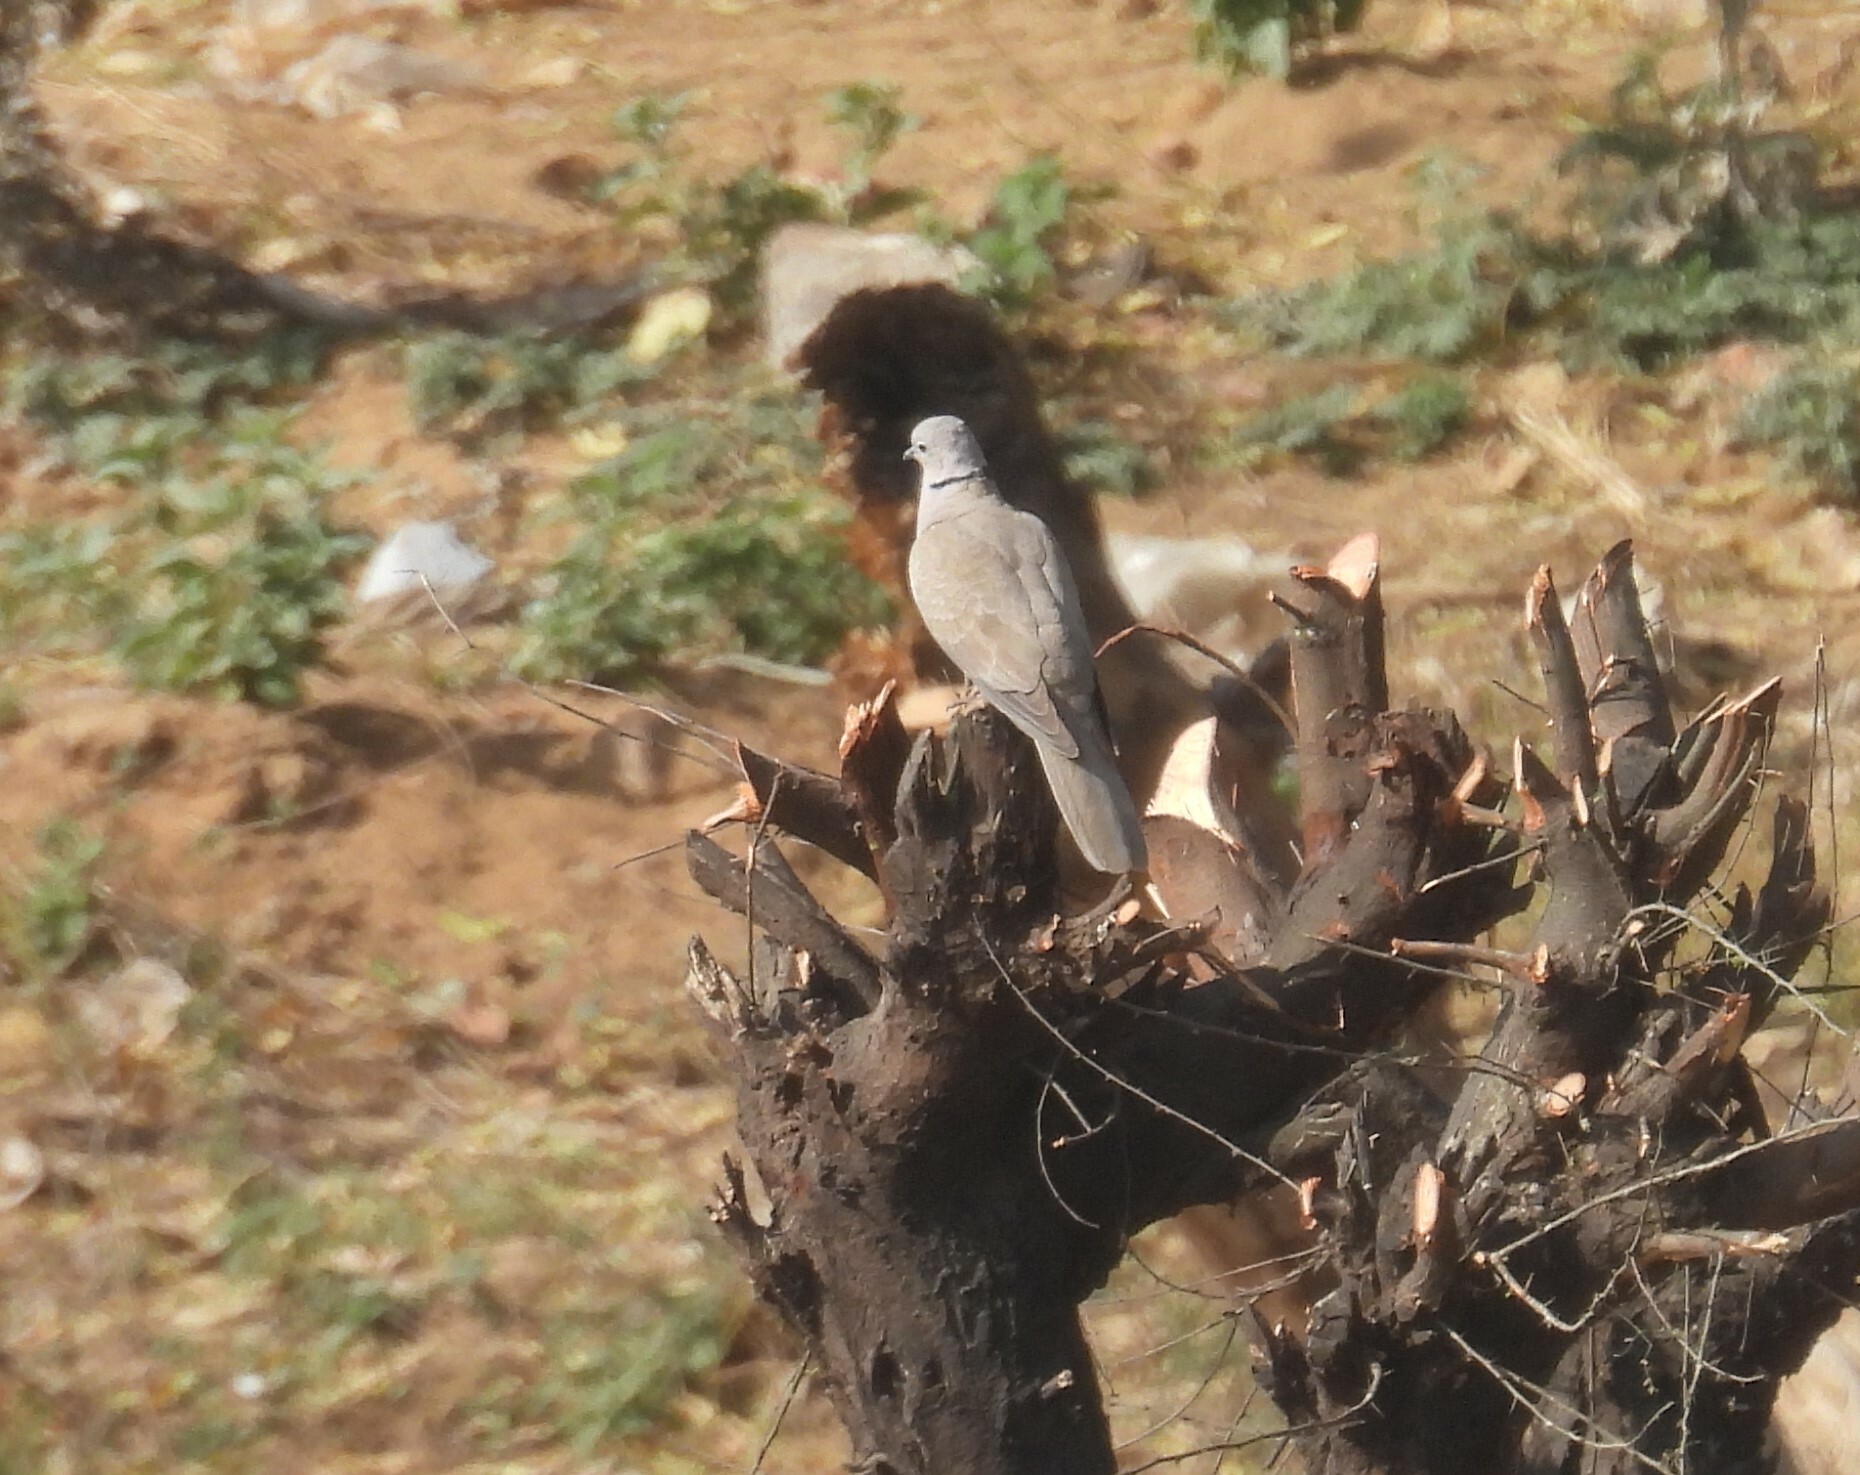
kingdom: Animalia
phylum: Chordata
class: Aves
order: Columbiformes
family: Columbidae
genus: Streptopelia
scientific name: Streptopelia decaocto
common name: Eurasian collared dove
